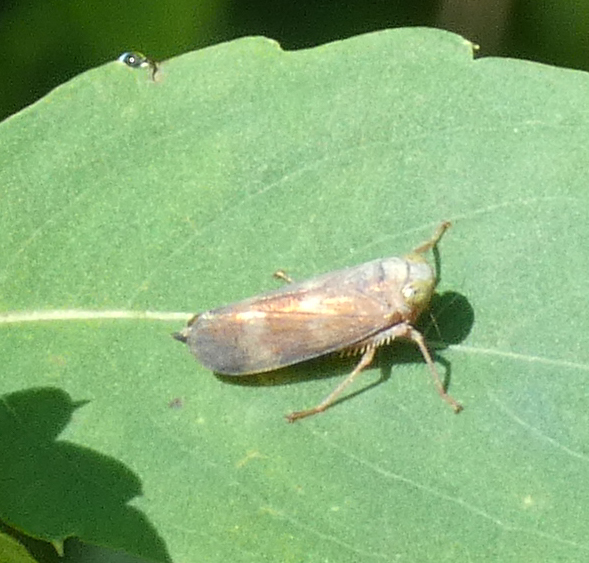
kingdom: Animalia
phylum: Arthropoda
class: Insecta
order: Hemiptera
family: Cicadellidae
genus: Jikradia
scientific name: Jikradia olitoria
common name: Coppery leafhopper
